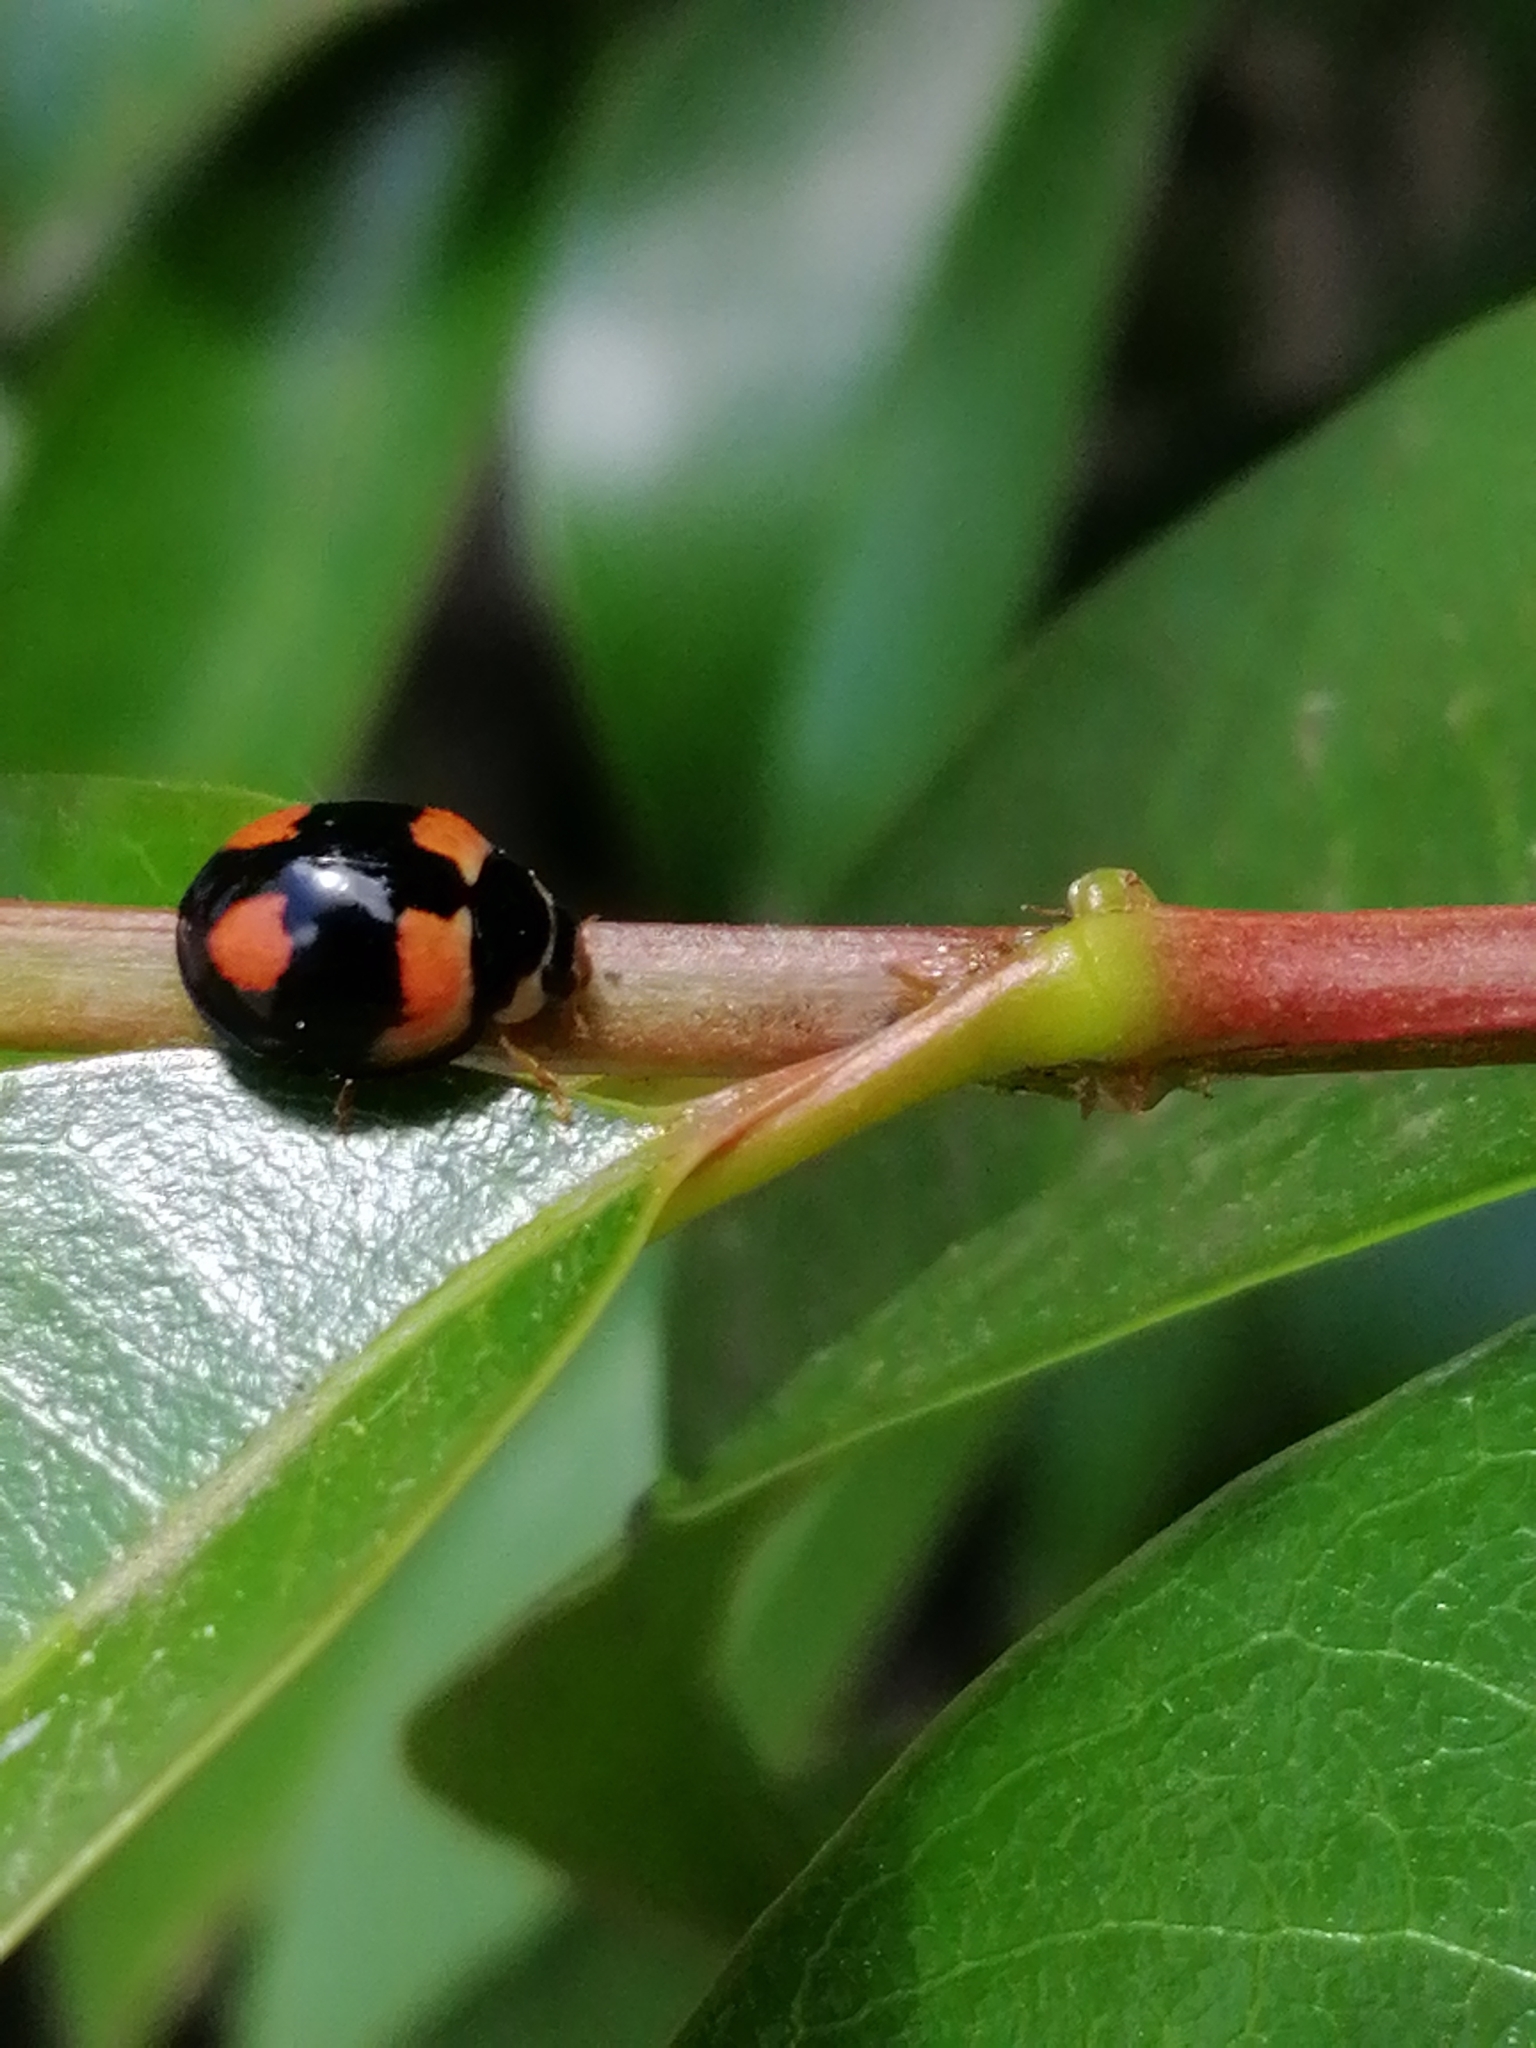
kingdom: Animalia
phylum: Arthropoda
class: Insecta
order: Coleoptera
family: Coccinellidae
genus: Cheilomenes
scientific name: Cheilomenes sexmaculata
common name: Ladybird beetle
